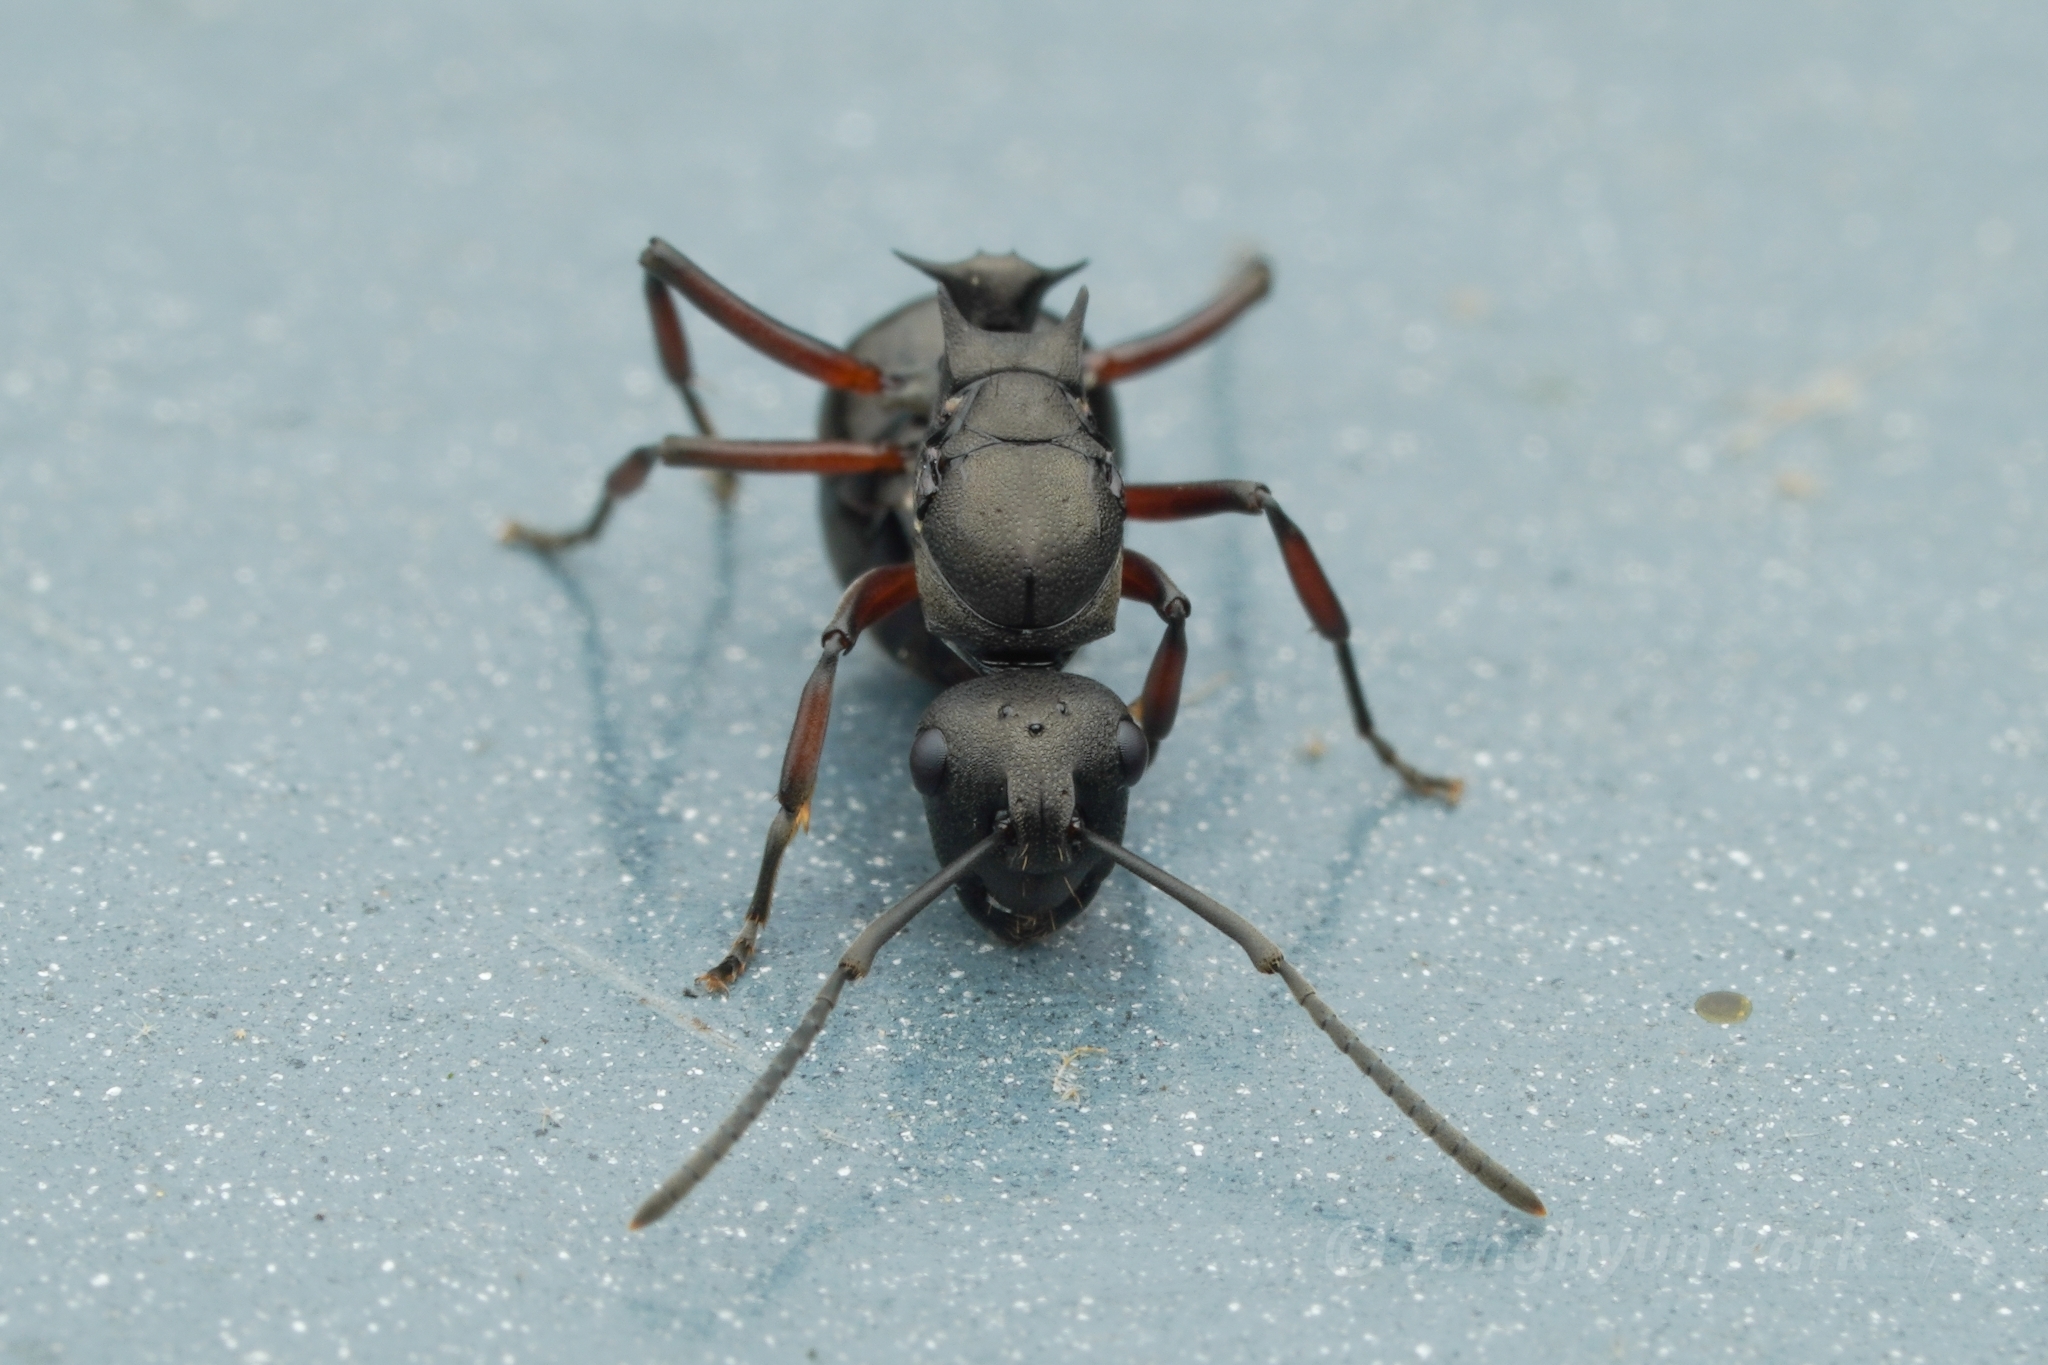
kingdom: Animalia
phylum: Arthropoda
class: Insecta
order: Hymenoptera
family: Formicidae
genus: Polyrhachis
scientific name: Polyrhachis moesta
